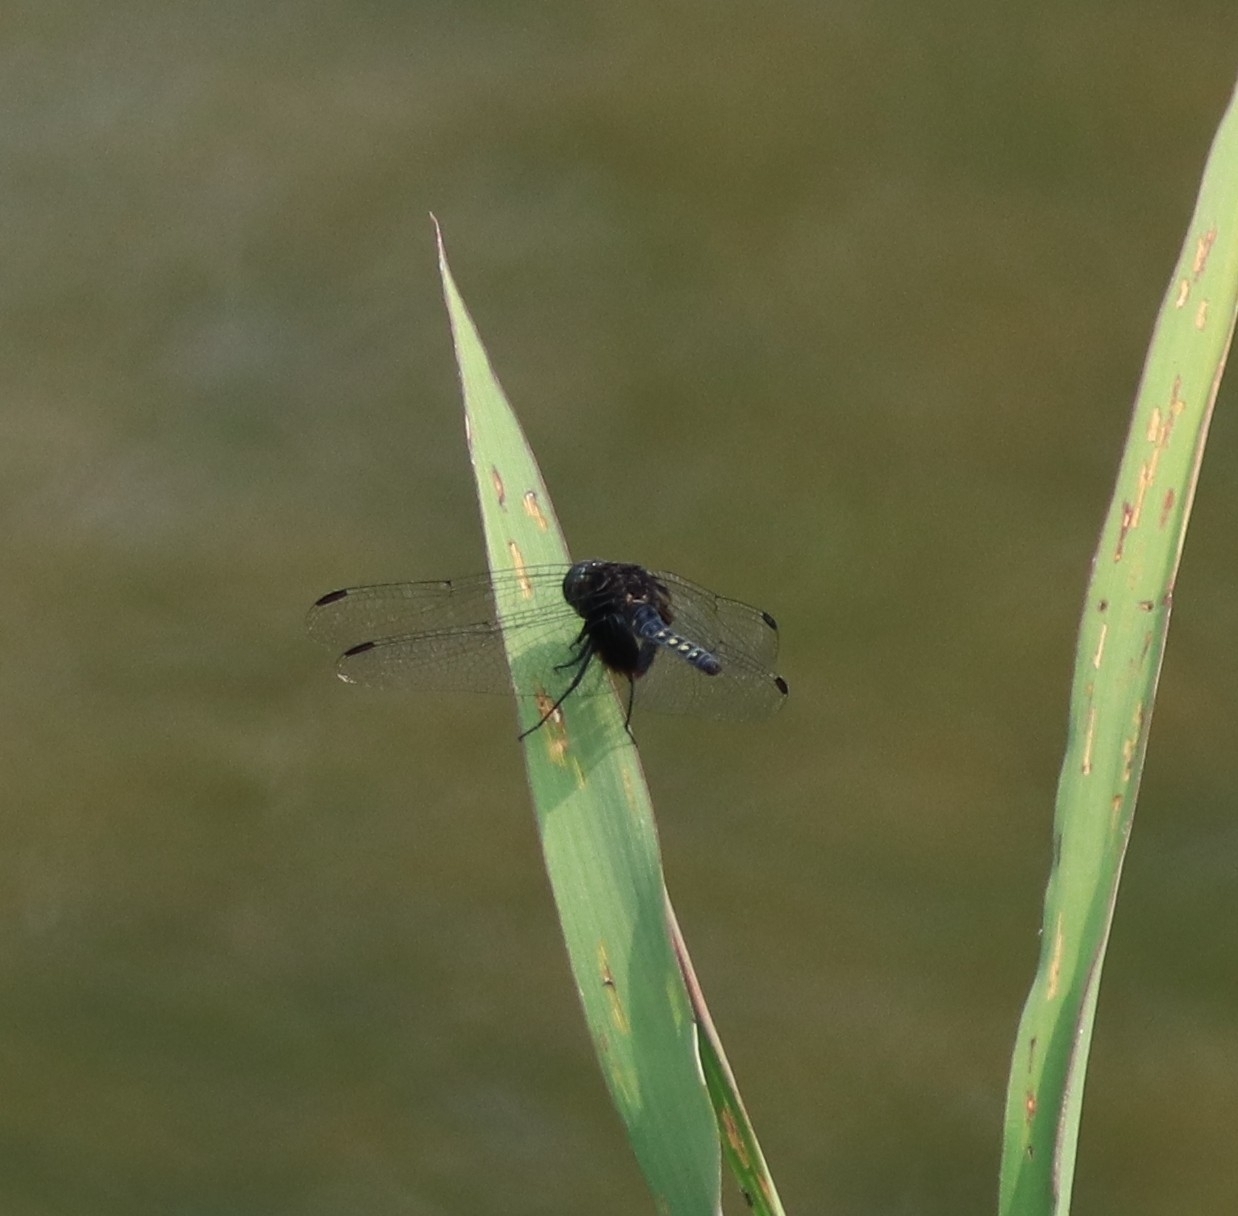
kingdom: Animalia
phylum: Arthropoda
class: Insecta
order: Odonata
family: Libellulidae
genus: Indothemis
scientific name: Indothemis limbata
